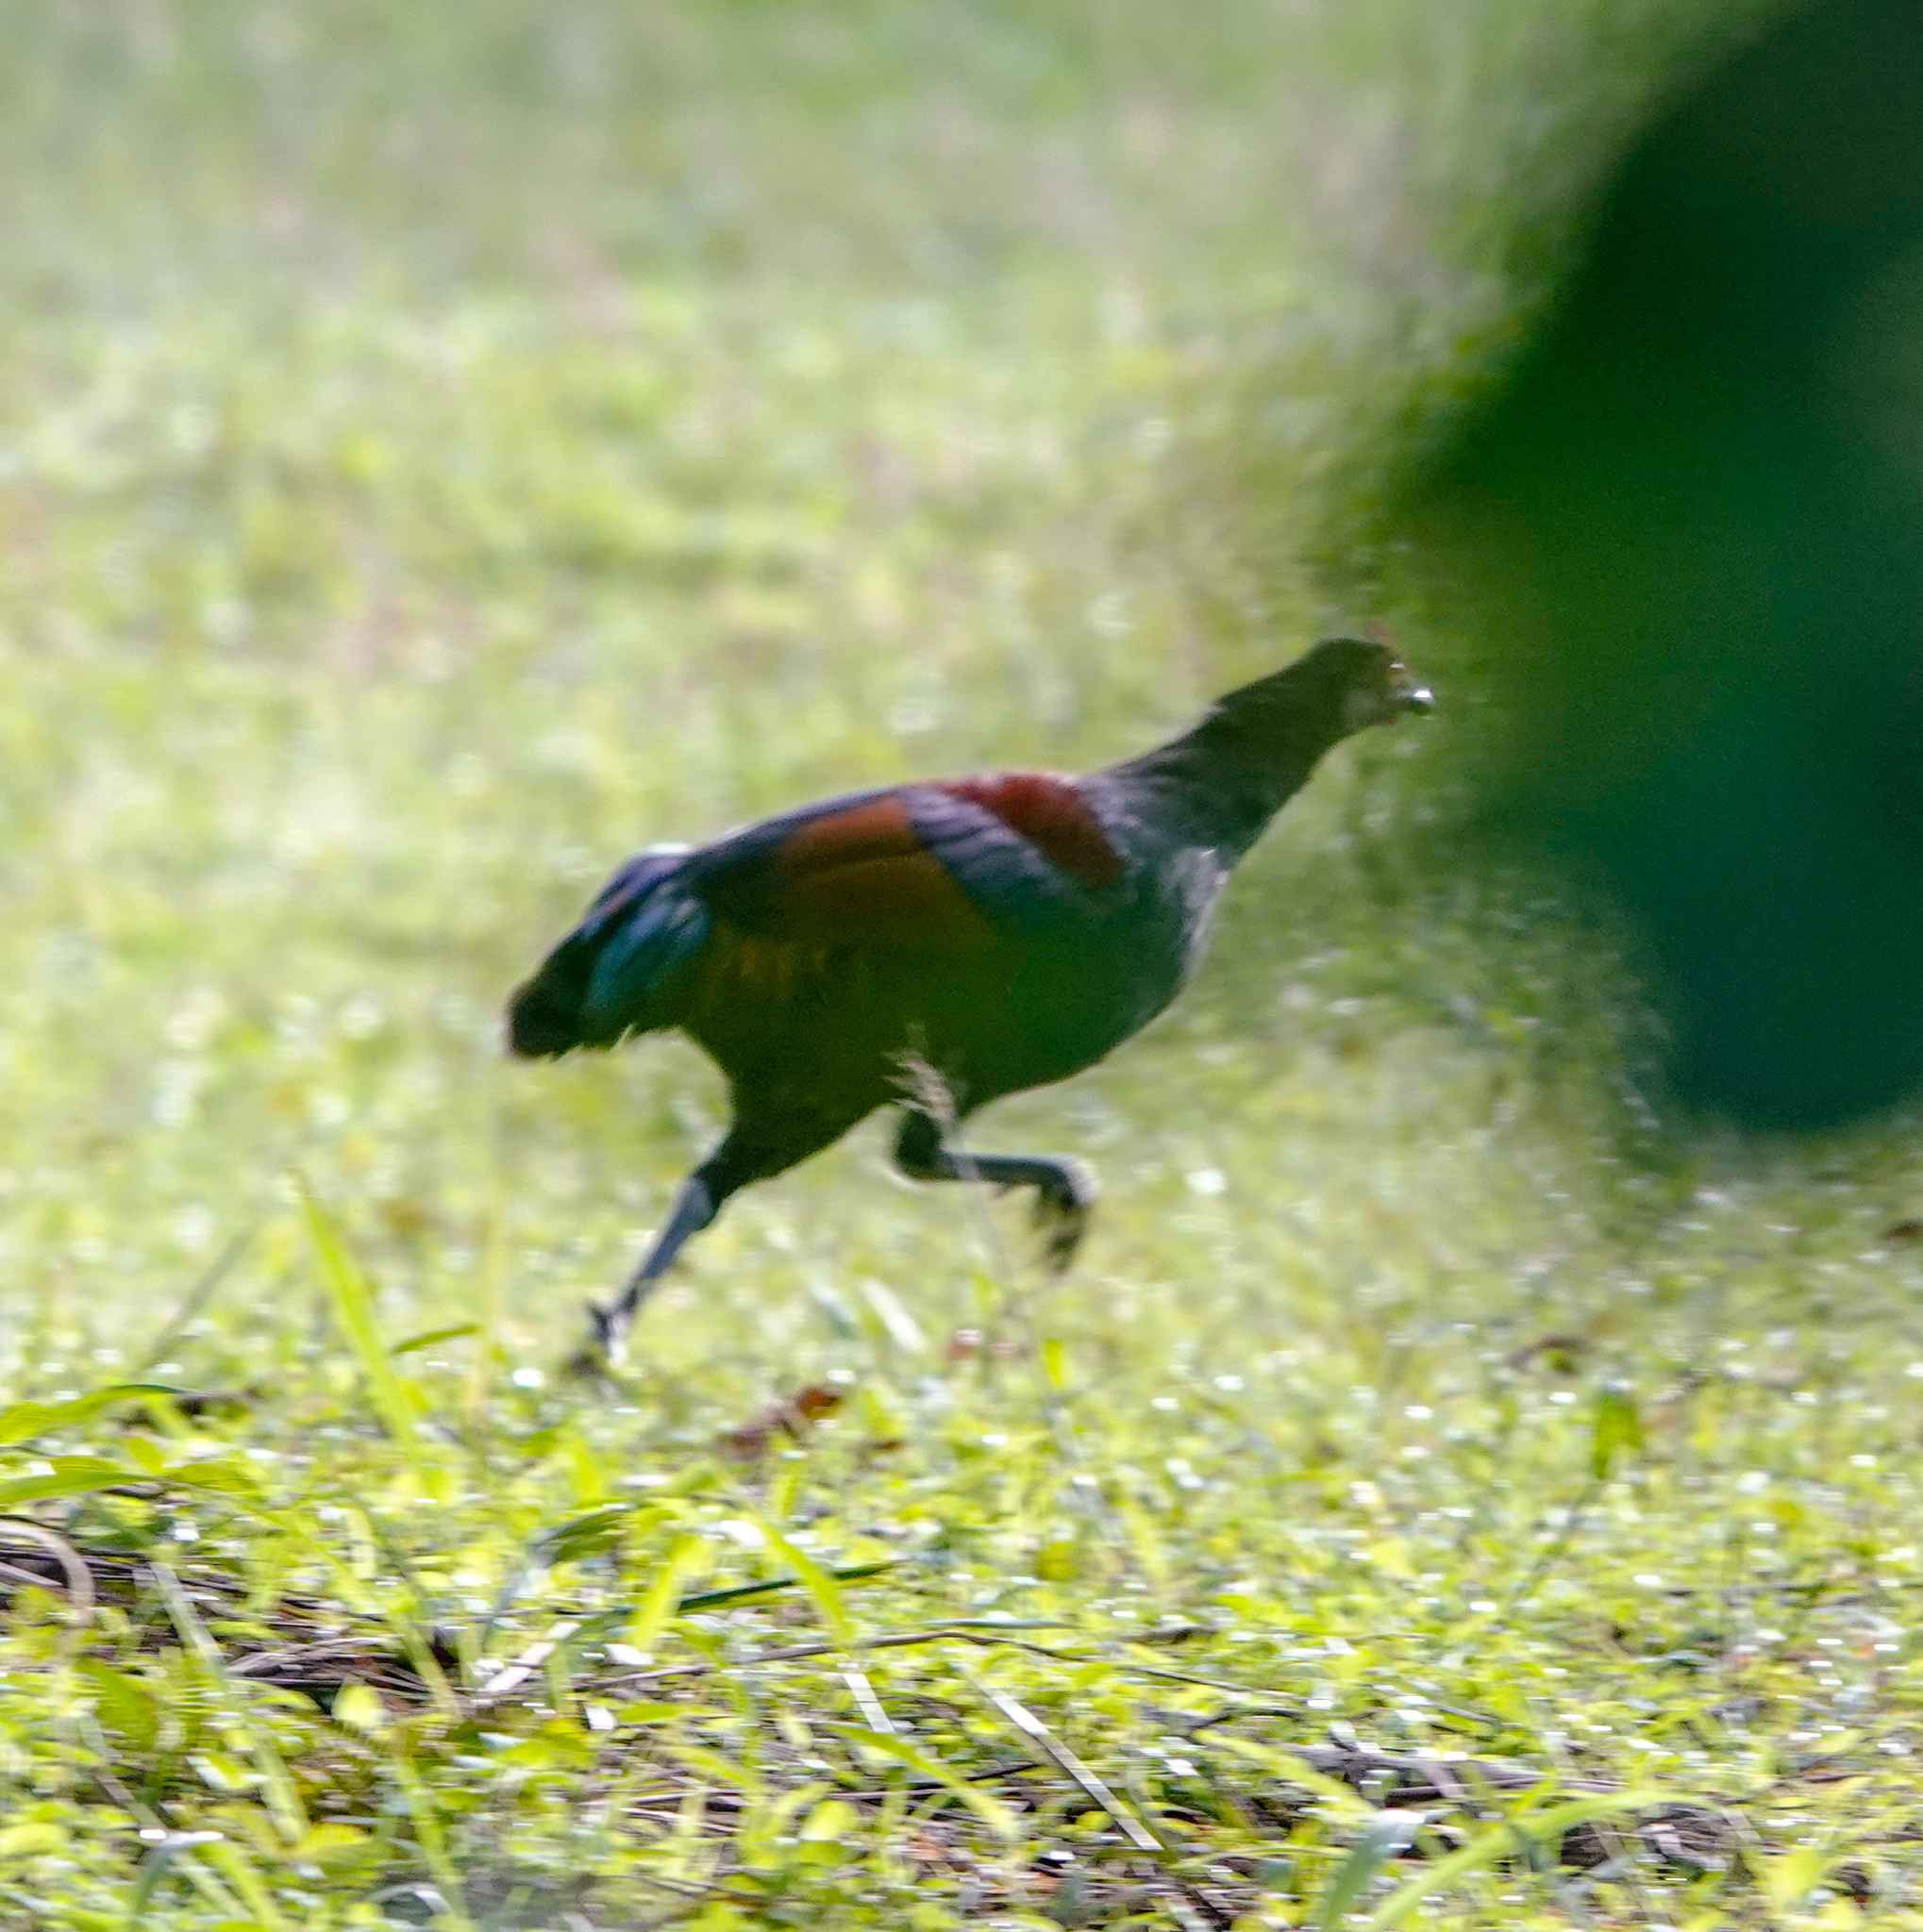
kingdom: Animalia
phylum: Chordata
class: Aves
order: Galliformes
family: Phasianidae
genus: Gallus
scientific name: Gallus gallus
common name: Red junglefowl
